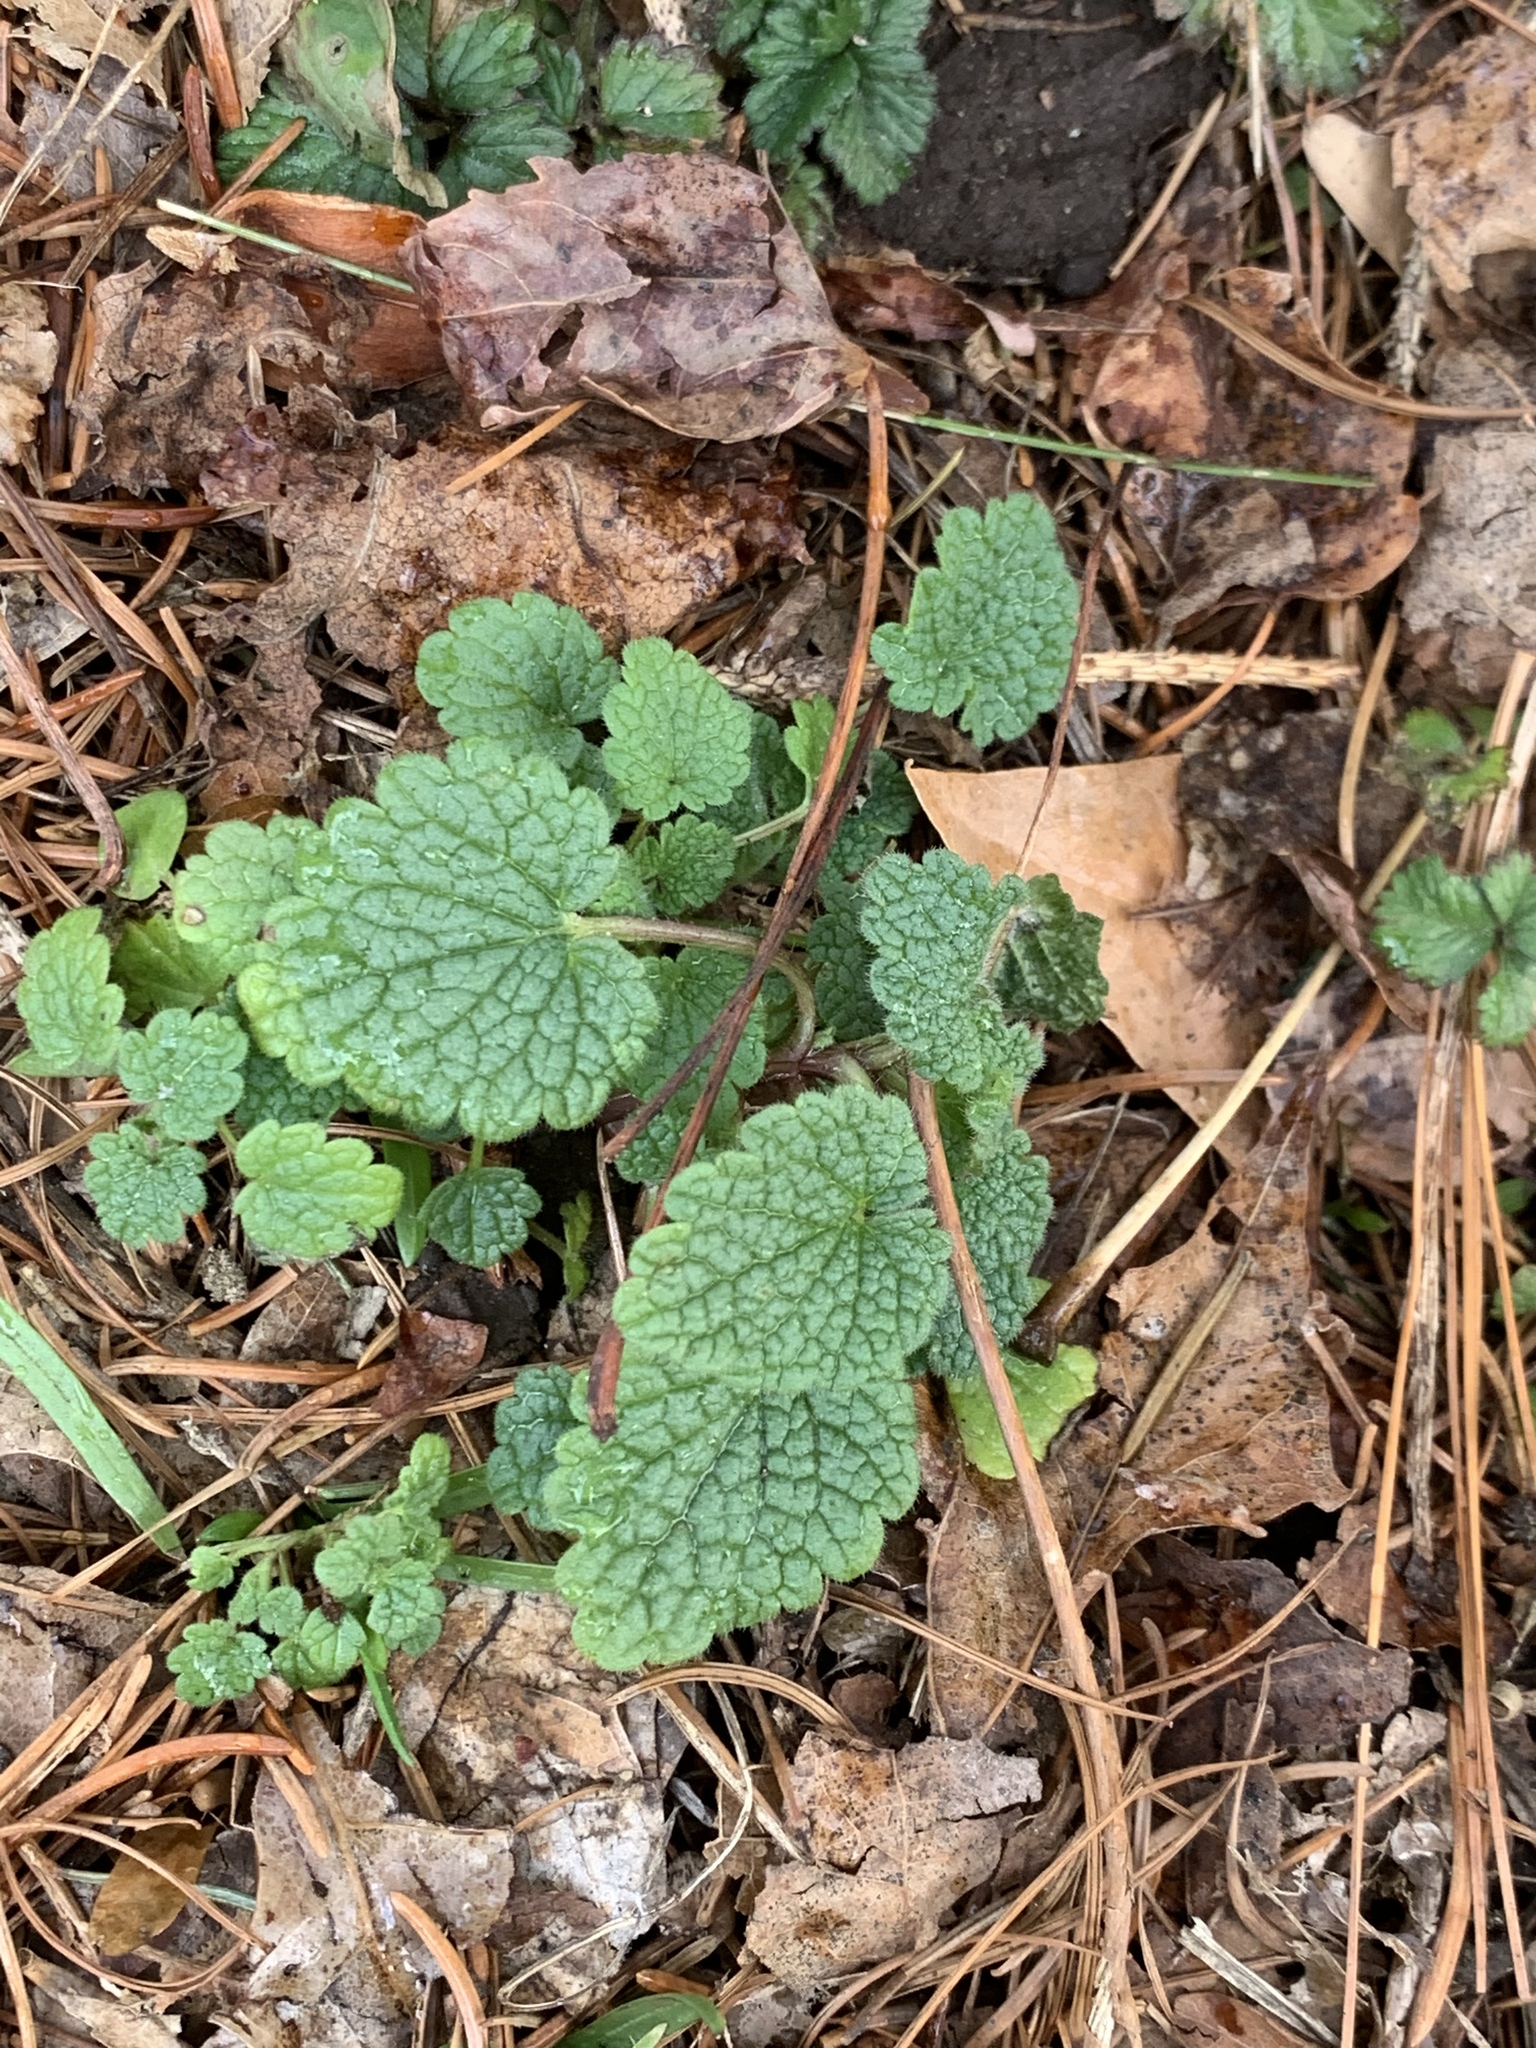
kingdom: Plantae
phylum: Tracheophyta
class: Magnoliopsida
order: Lamiales
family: Lamiaceae
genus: Lamium
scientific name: Lamium purpureum
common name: Red dead-nettle
